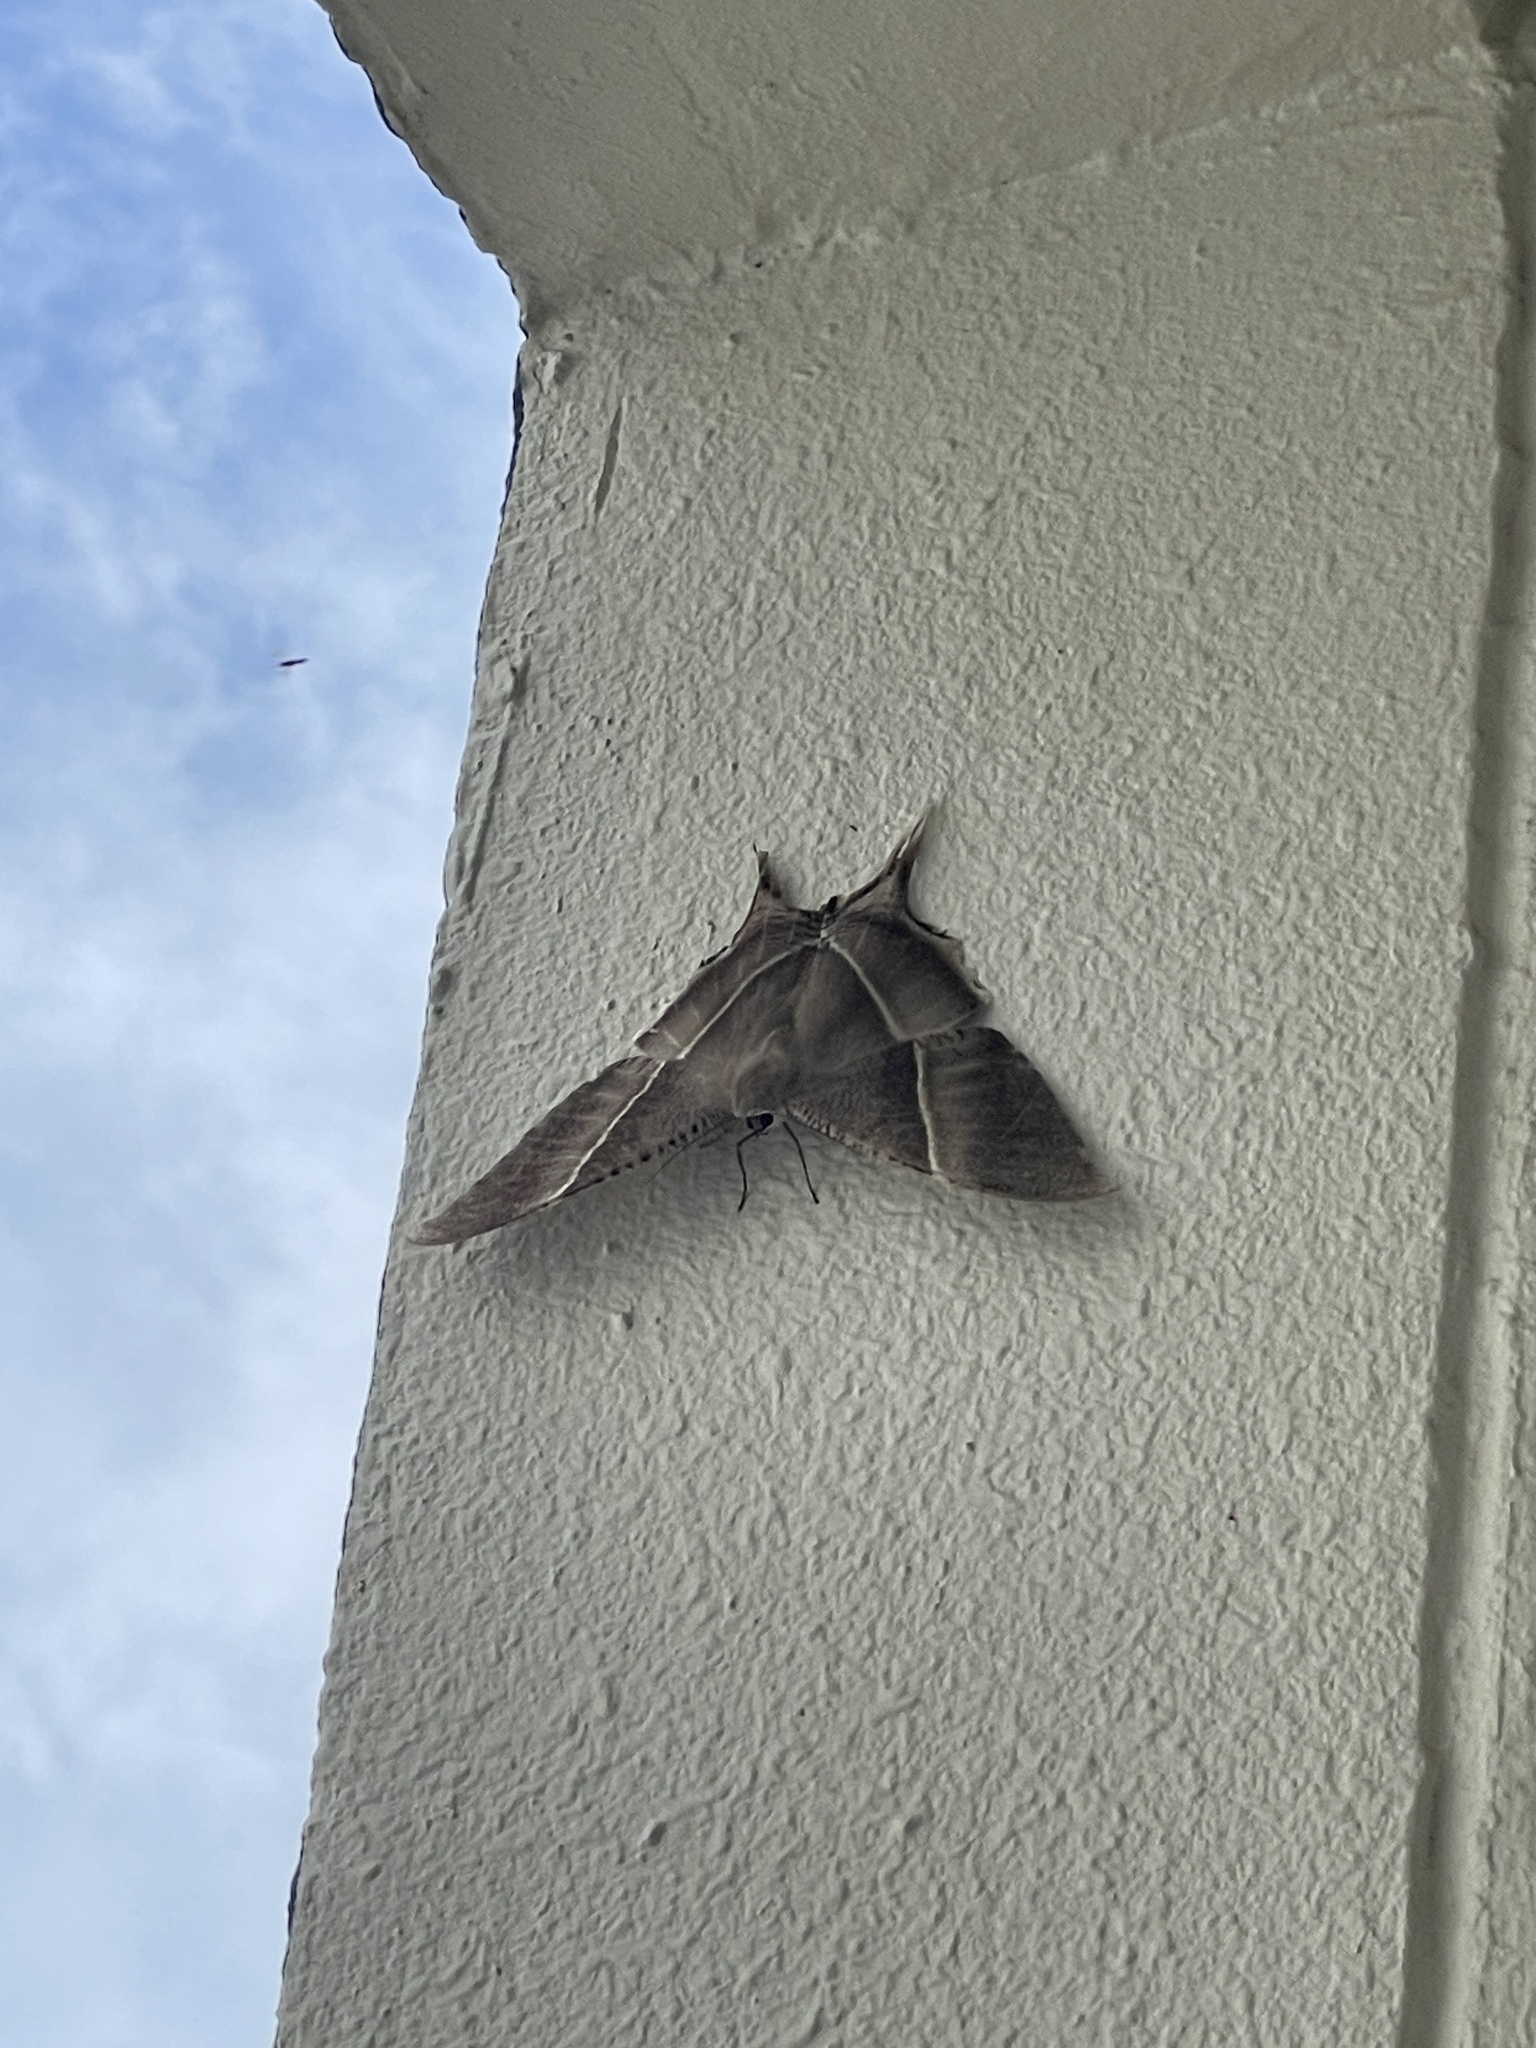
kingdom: Animalia
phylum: Arthropoda
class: Insecta
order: Lepidoptera
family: Uraniidae
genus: Lyssa
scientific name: Lyssa zampa
